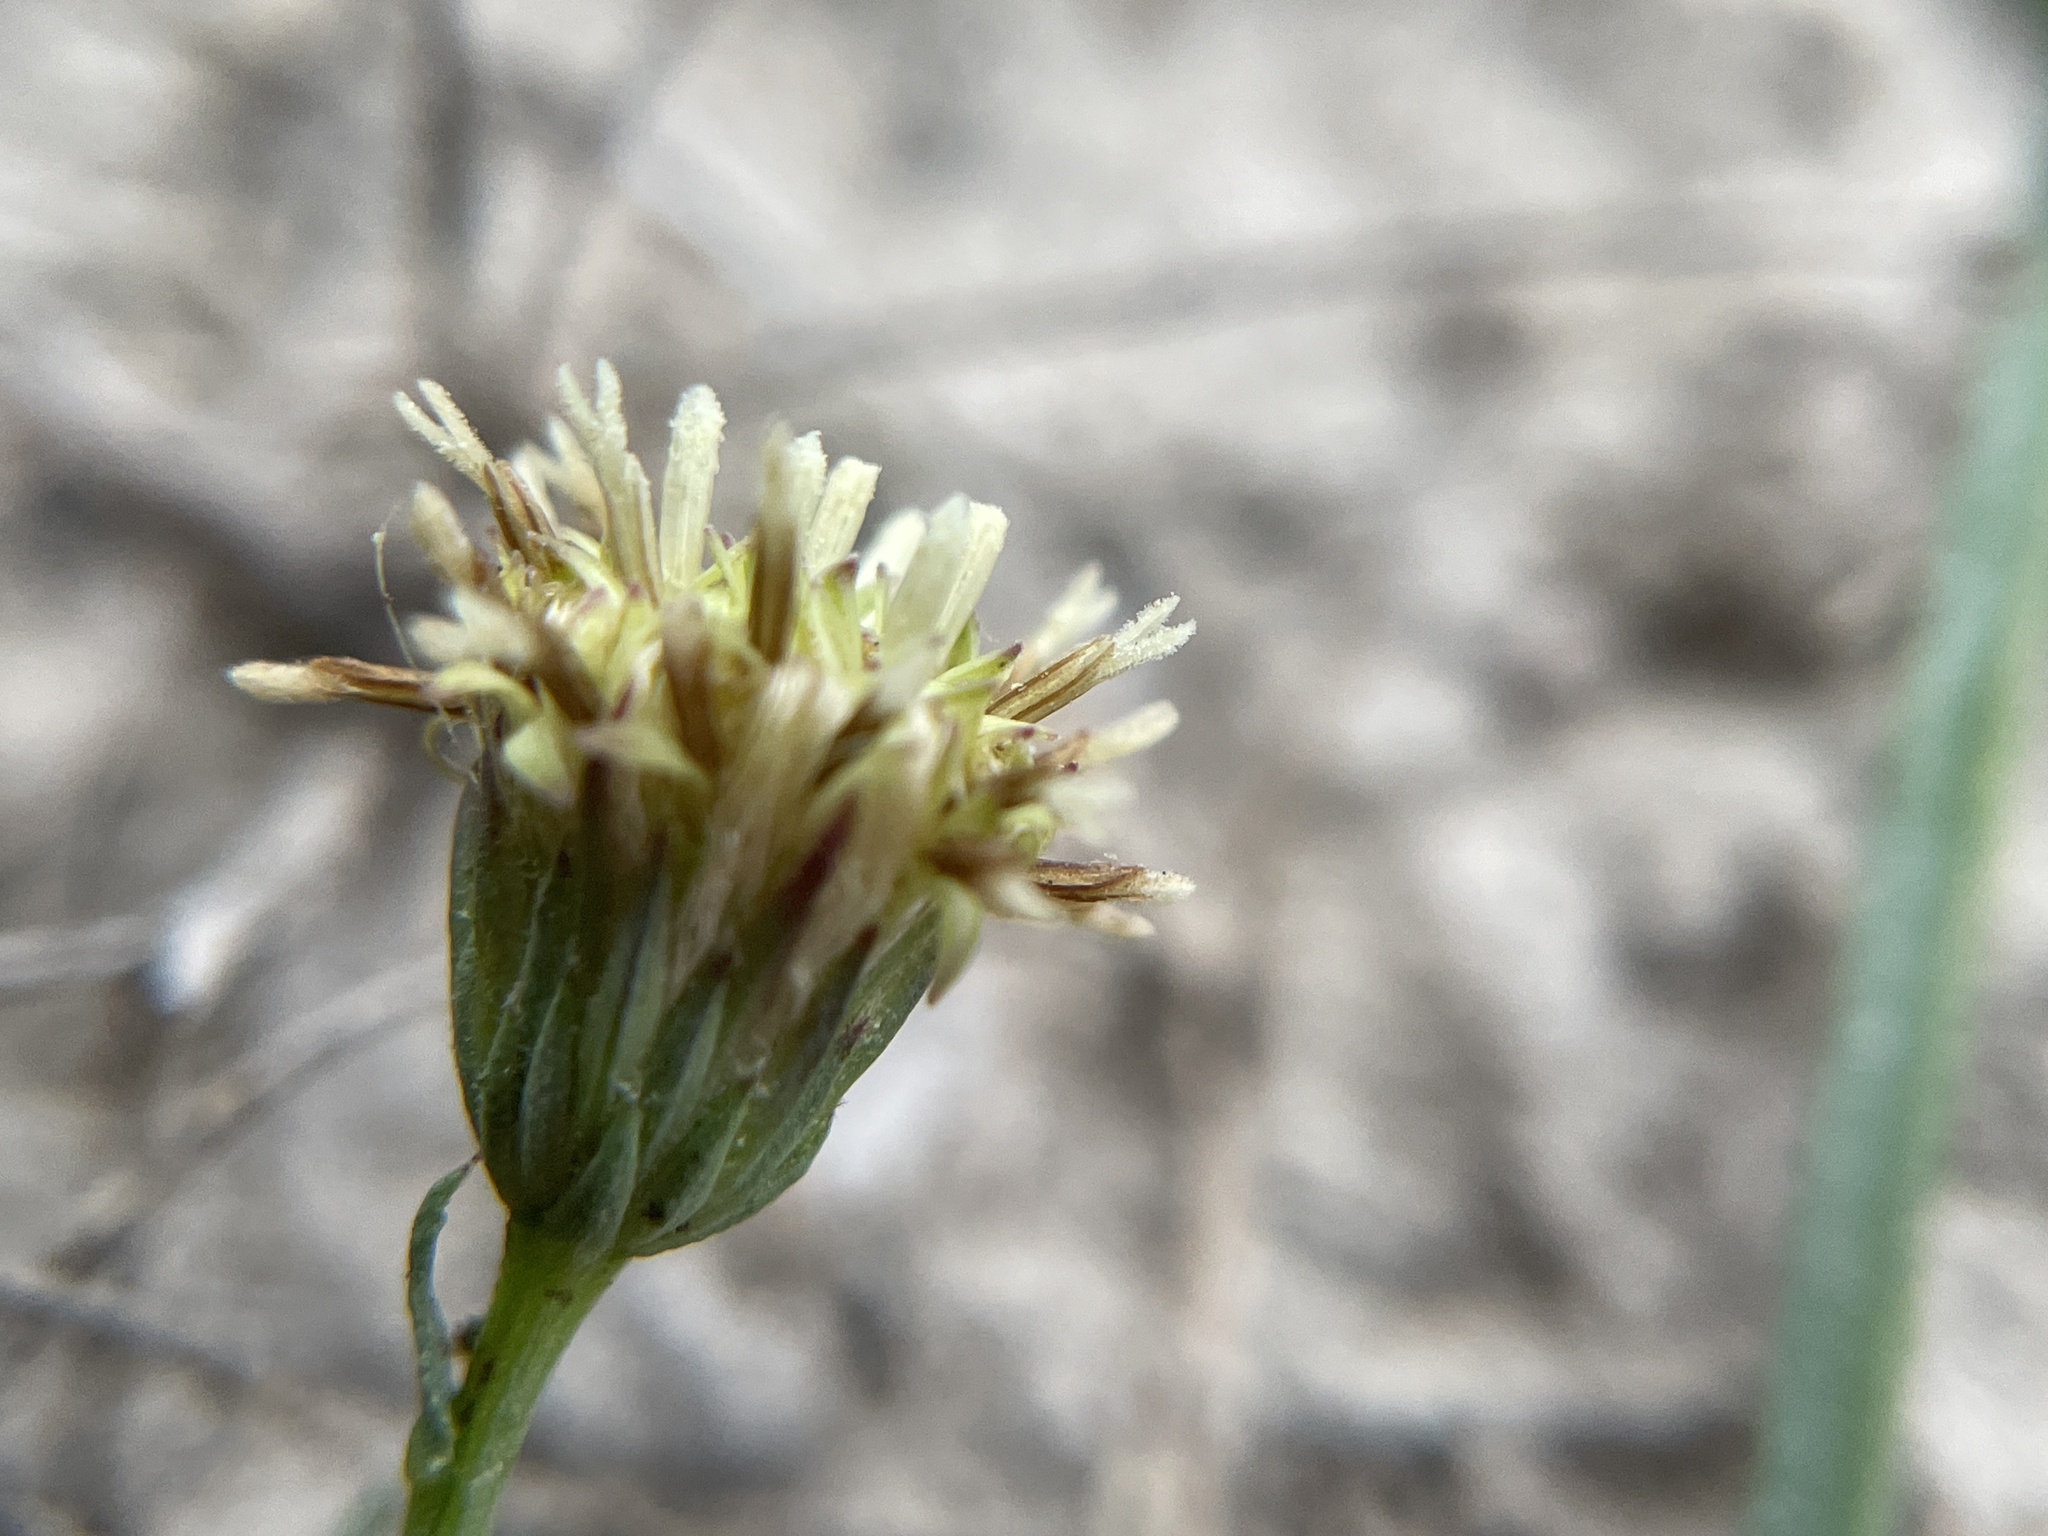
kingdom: Plantae
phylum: Tracheophyta
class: Magnoliopsida
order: Asterales
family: Asteraceae
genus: Baccharis
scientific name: Baccharis texana
